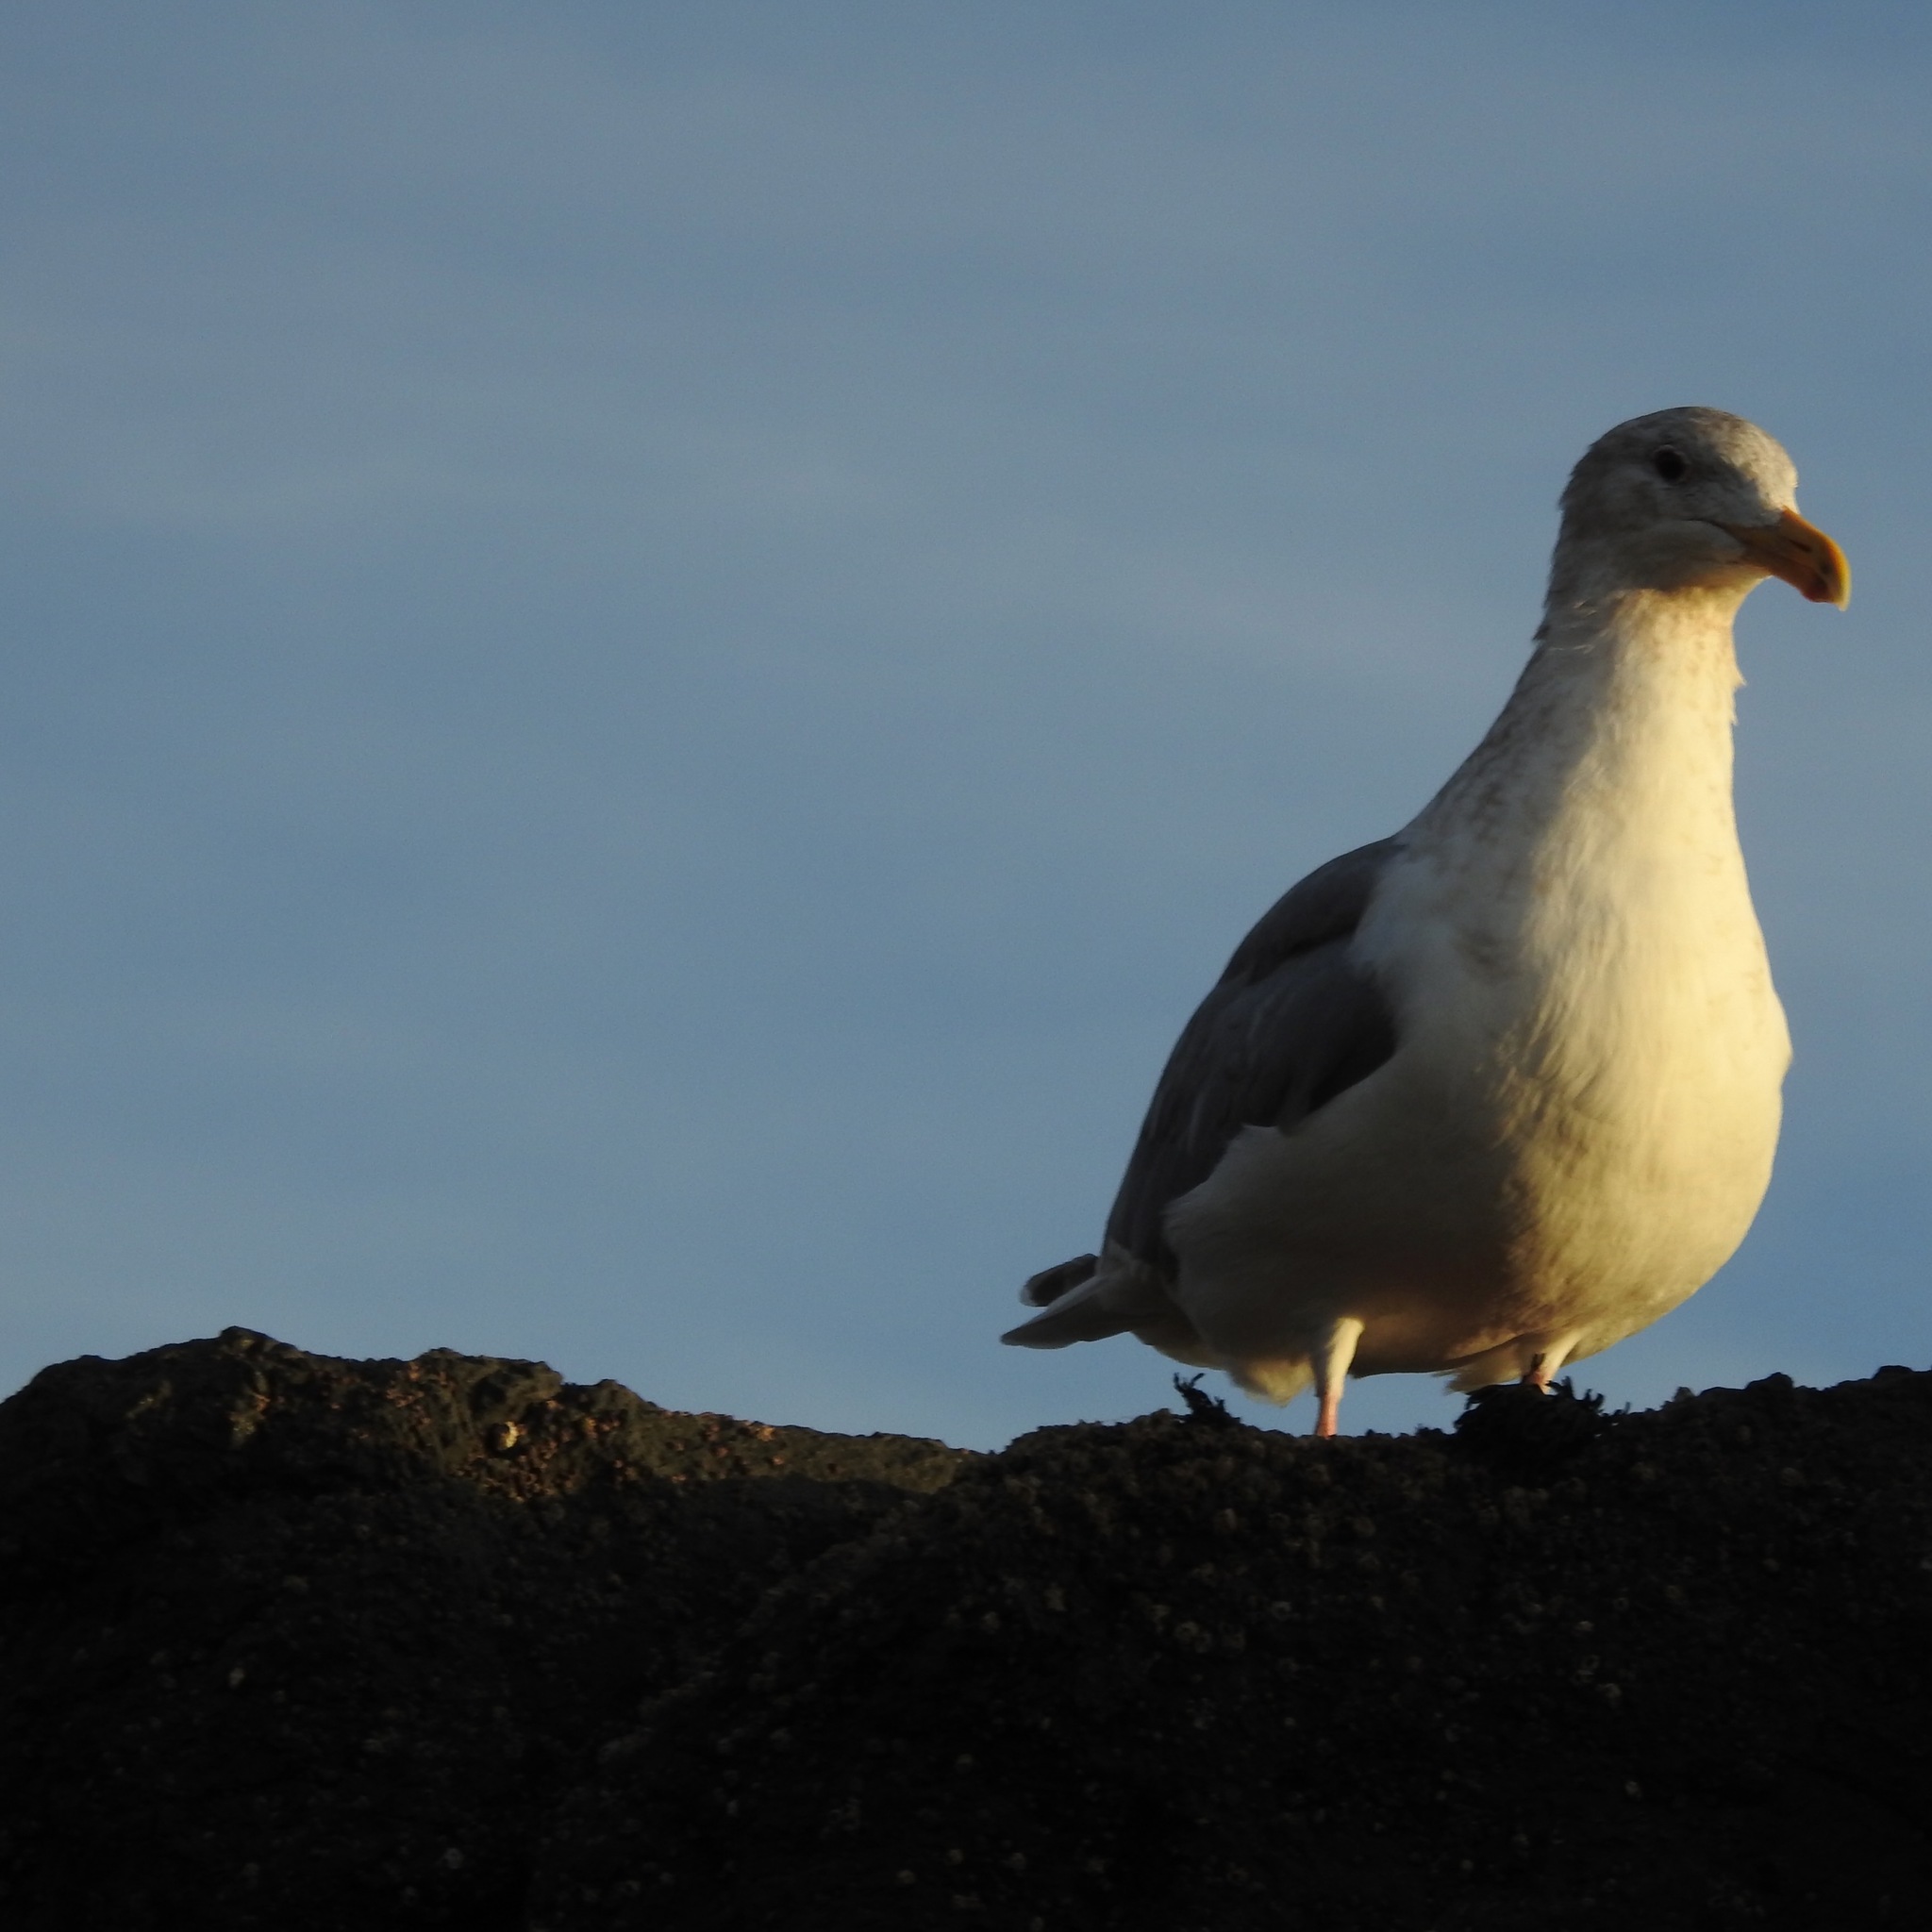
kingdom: Animalia
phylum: Chordata
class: Aves
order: Charadriiformes
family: Laridae
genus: Larus
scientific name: Larus occidentalis
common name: Western gull
